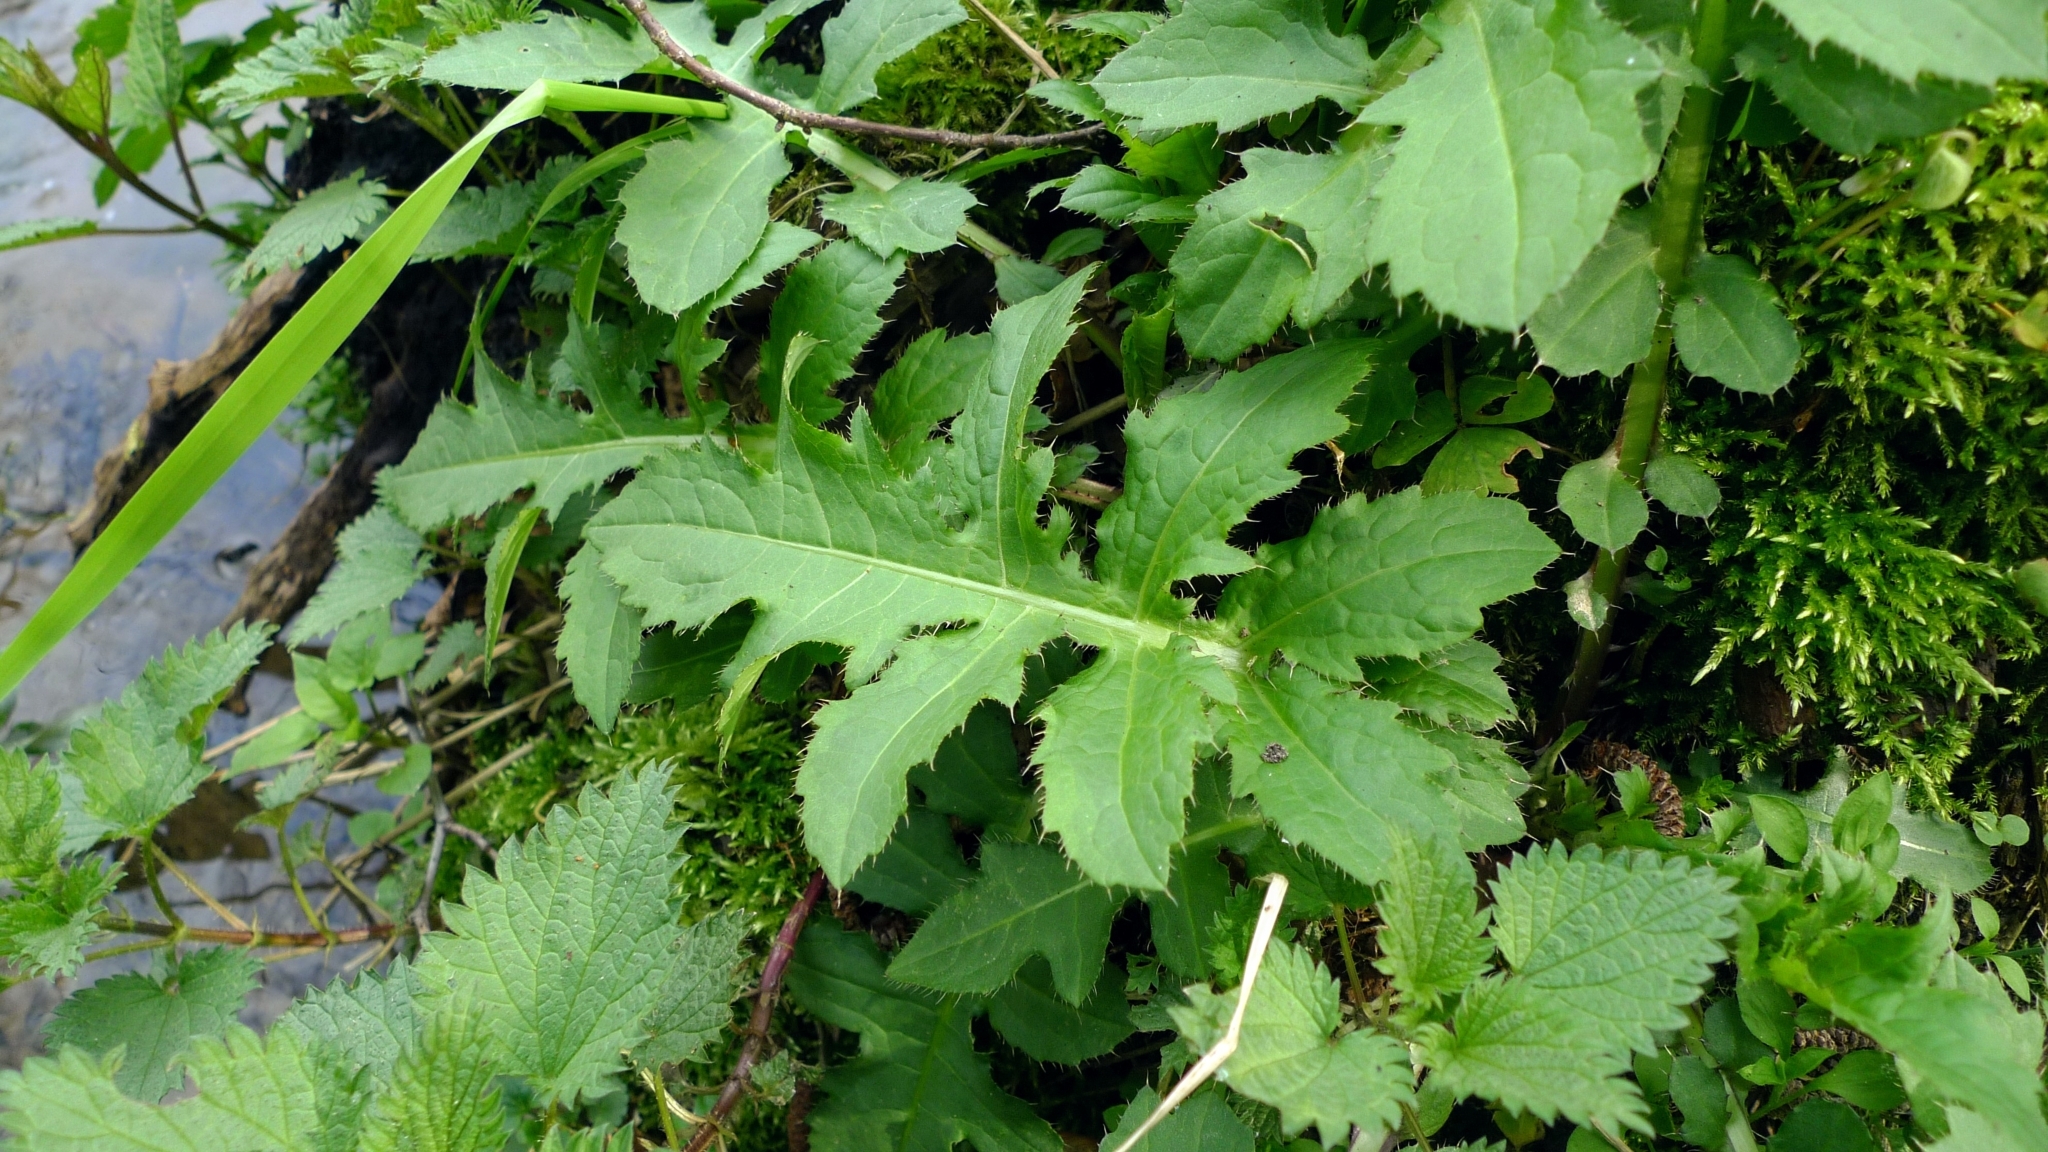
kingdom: Plantae
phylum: Tracheophyta
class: Magnoliopsida
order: Asterales
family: Asteraceae
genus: Cirsium
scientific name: Cirsium oleraceum
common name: Cabbage thistle
